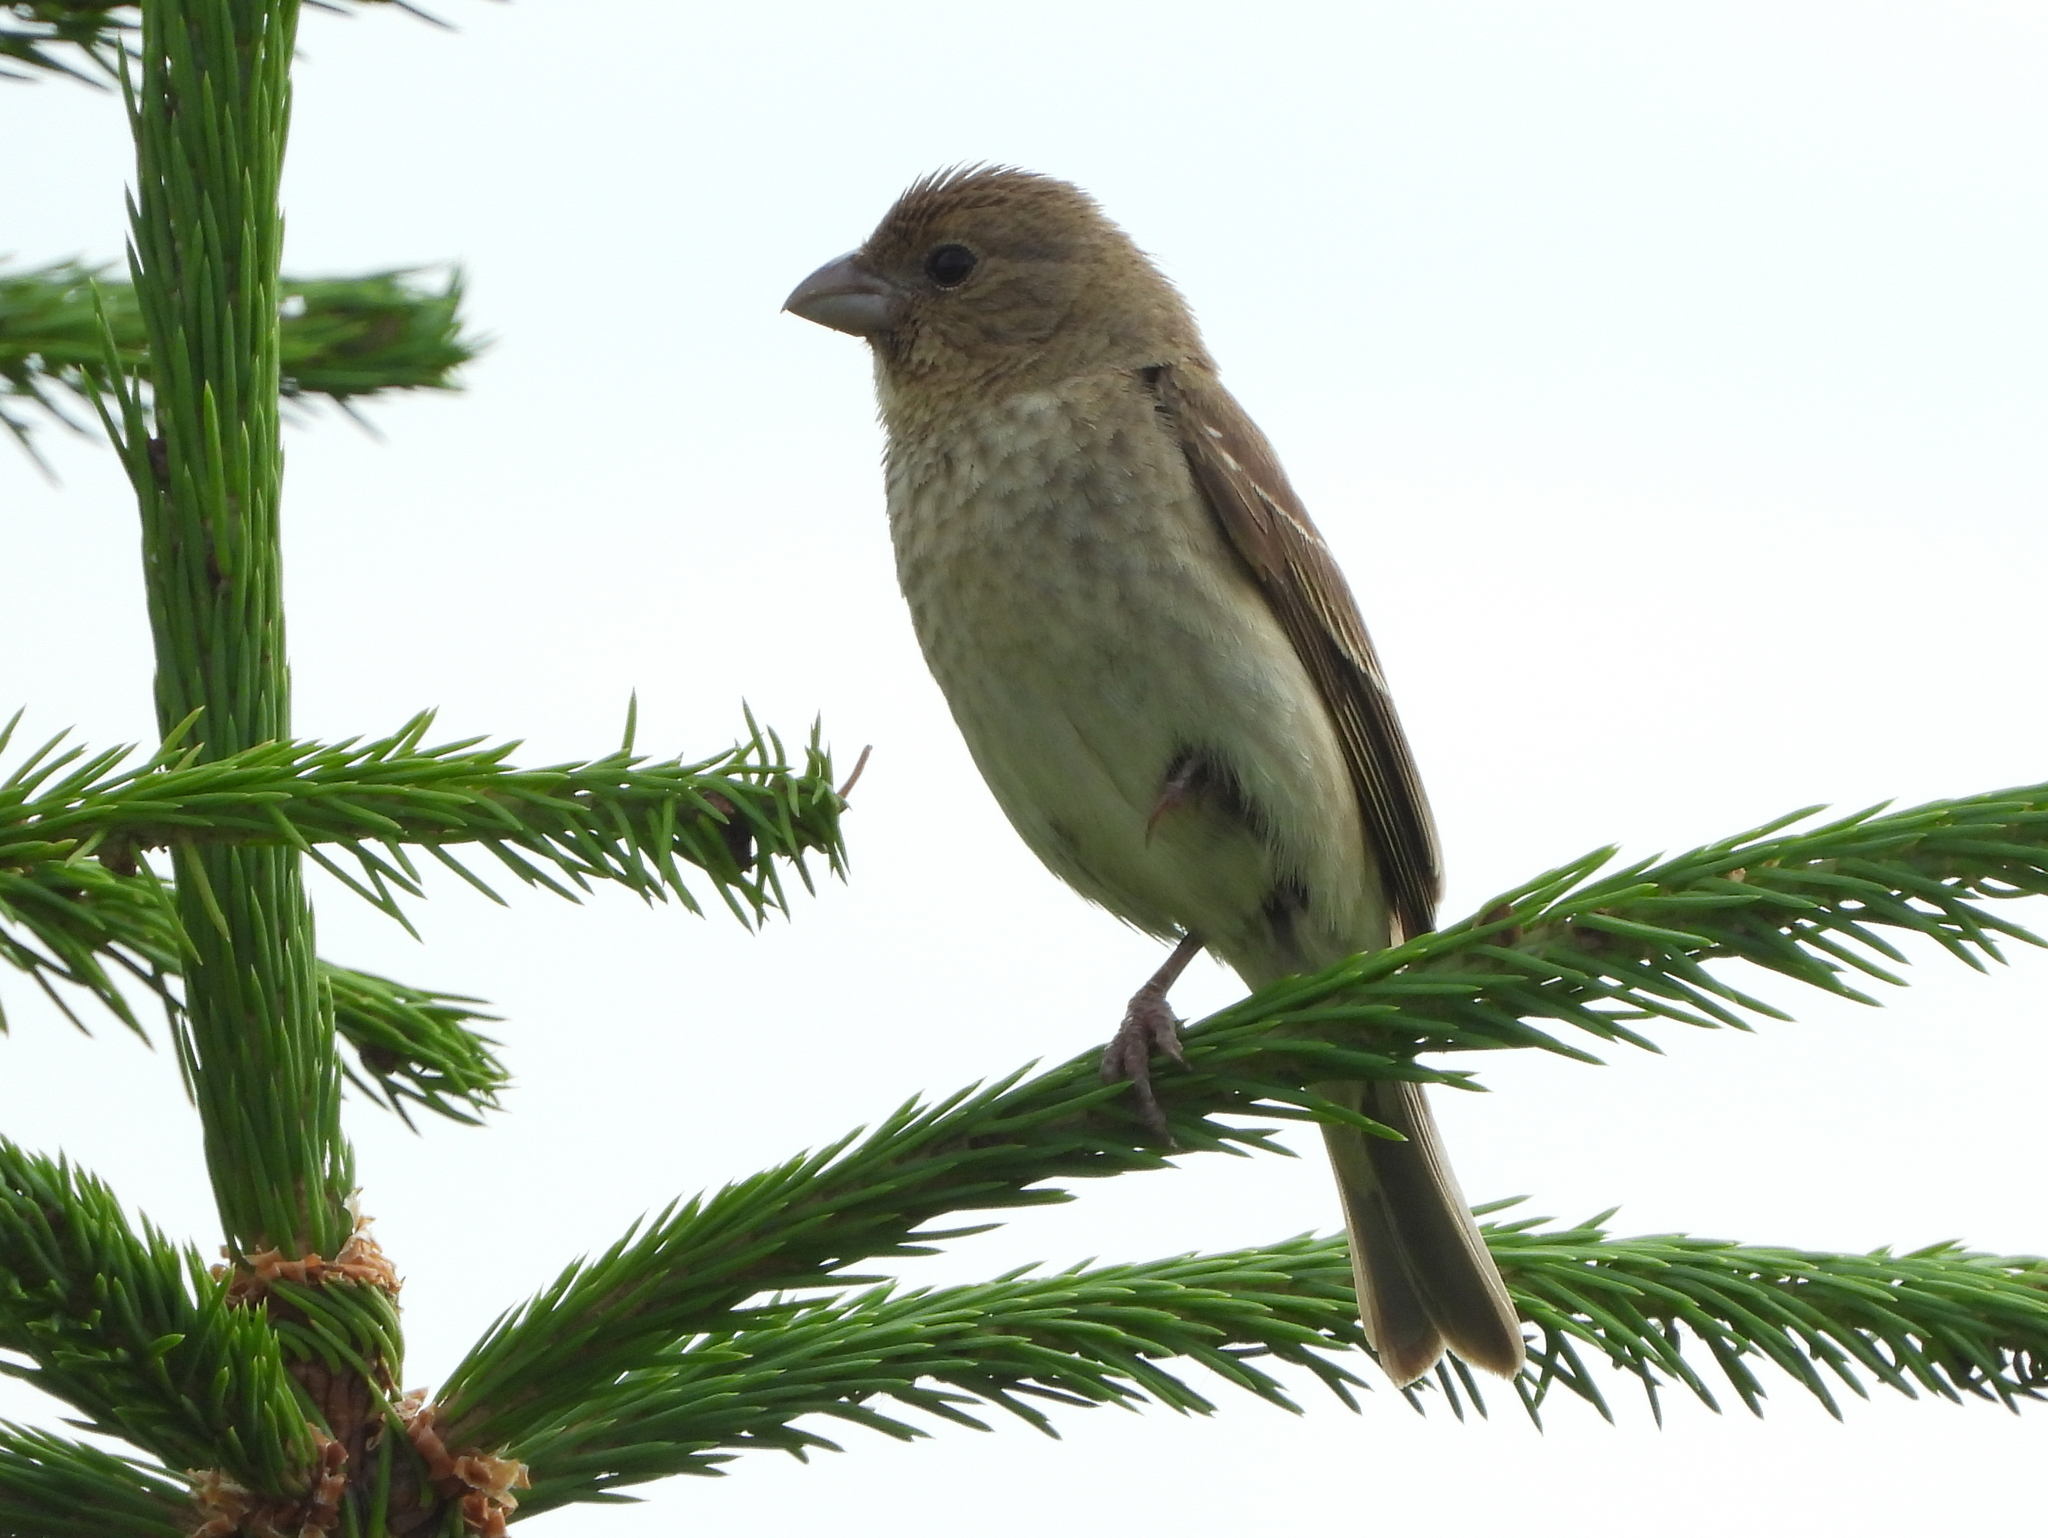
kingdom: Animalia
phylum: Chordata
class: Aves
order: Passeriformes
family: Fringillidae
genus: Carpodacus
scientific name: Carpodacus erythrinus
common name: Common rosefinch
